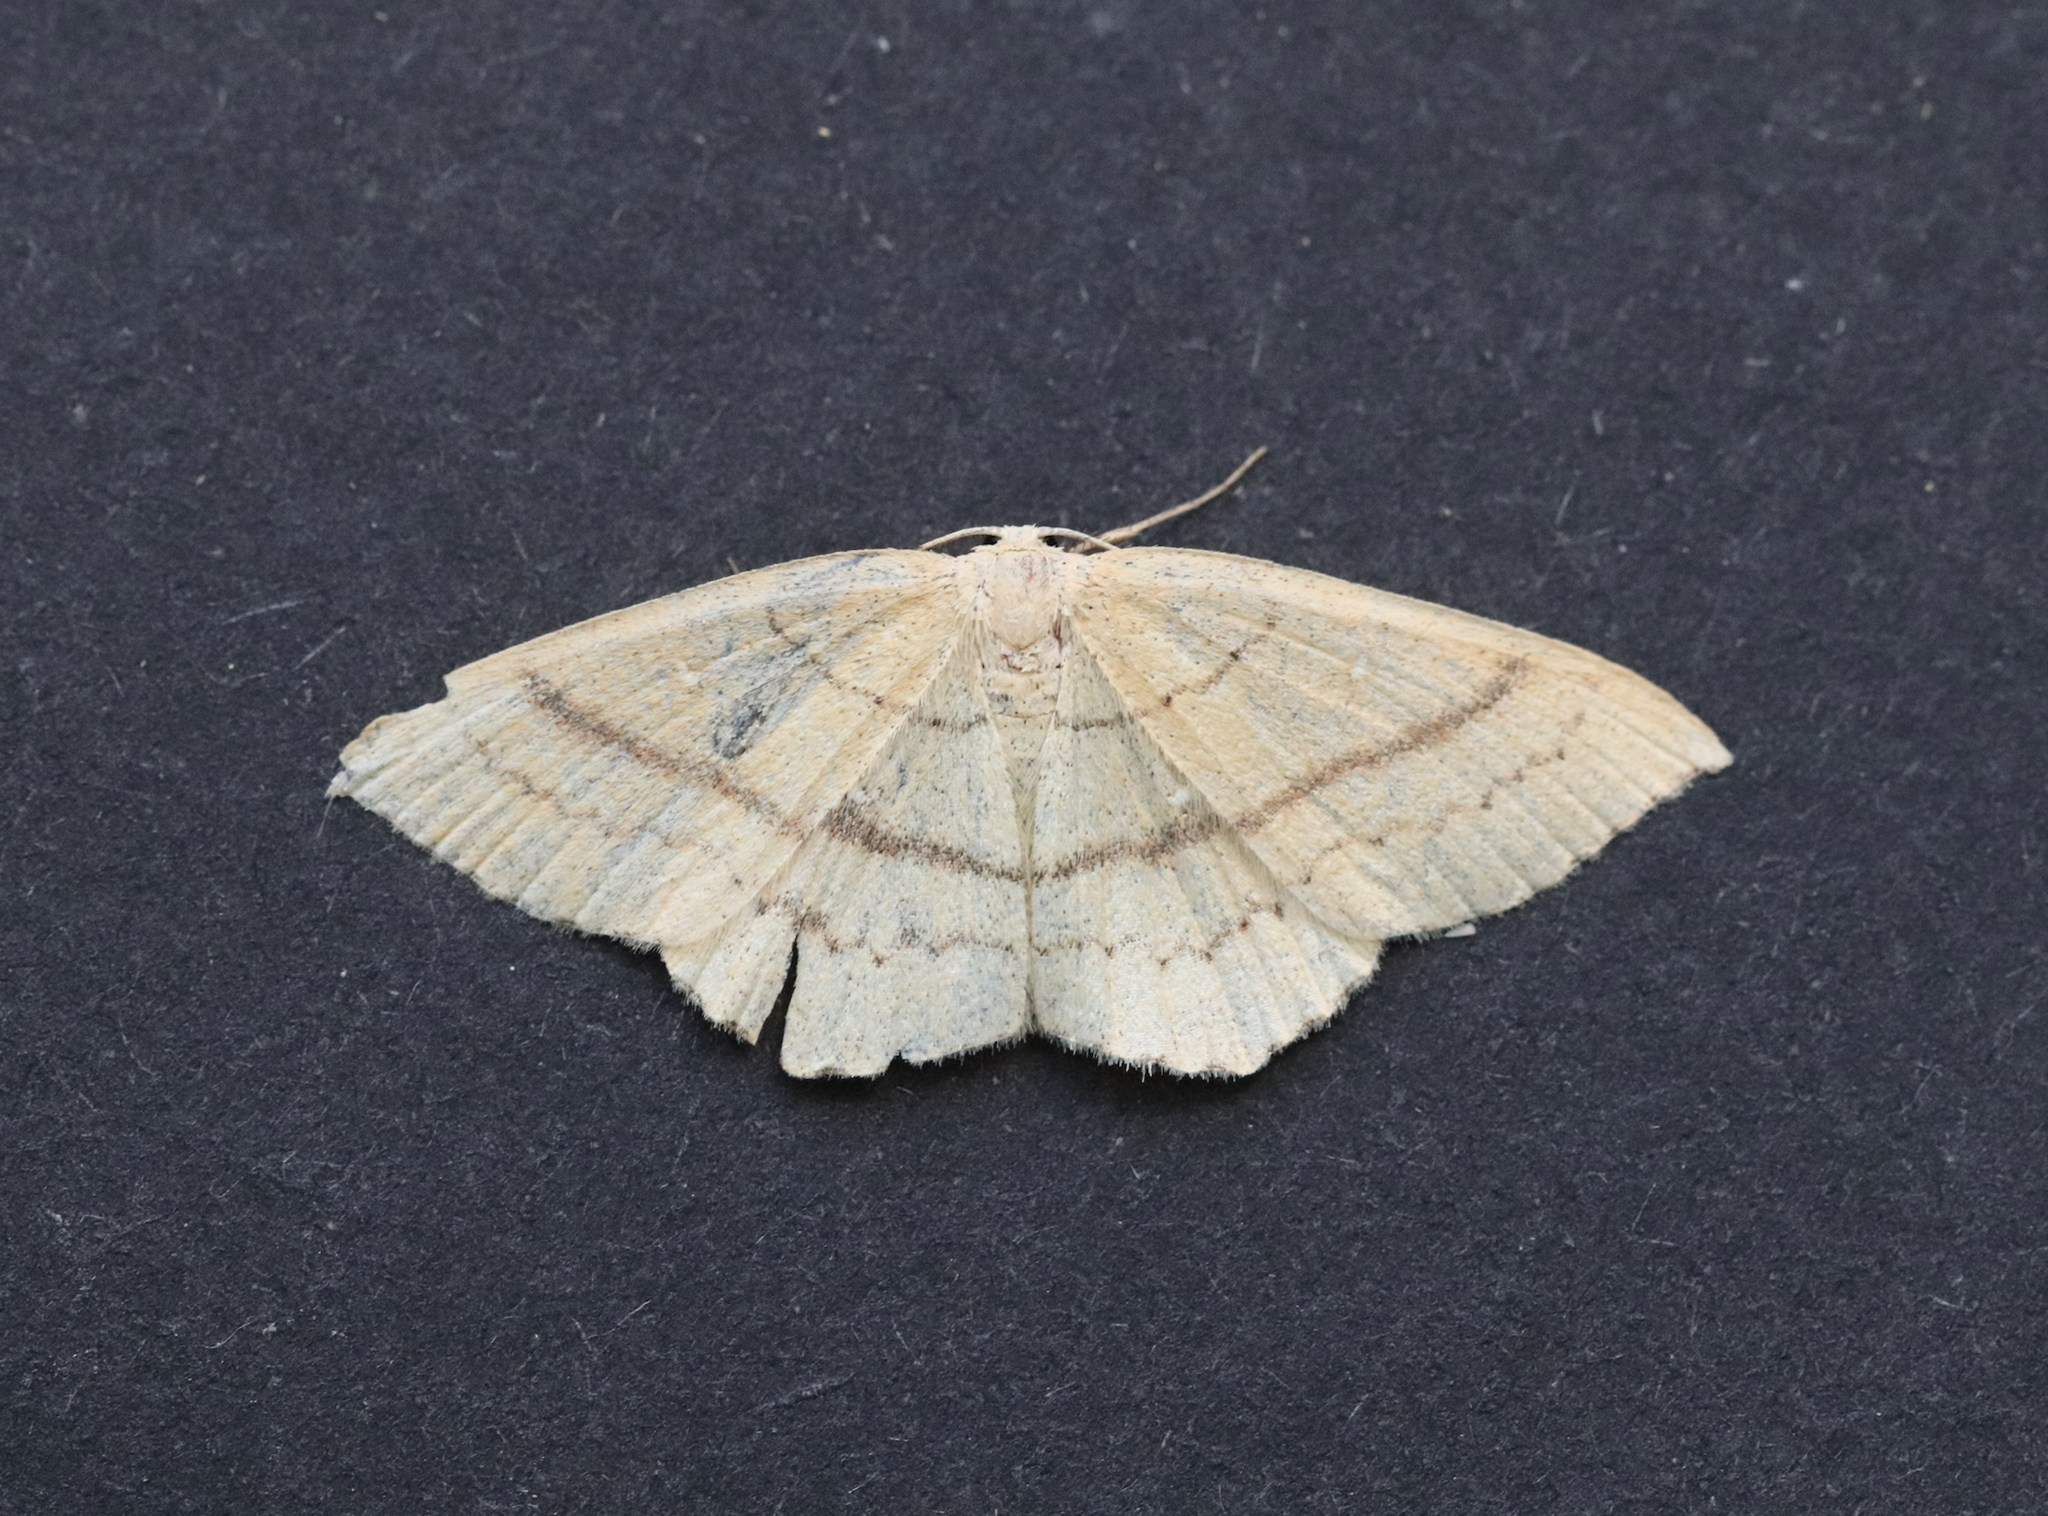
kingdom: Animalia
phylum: Arthropoda
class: Insecta
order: Lepidoptera
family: Geometridae
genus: Cyclophora
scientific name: Cyclophora linearia
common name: Clay triple-lines
